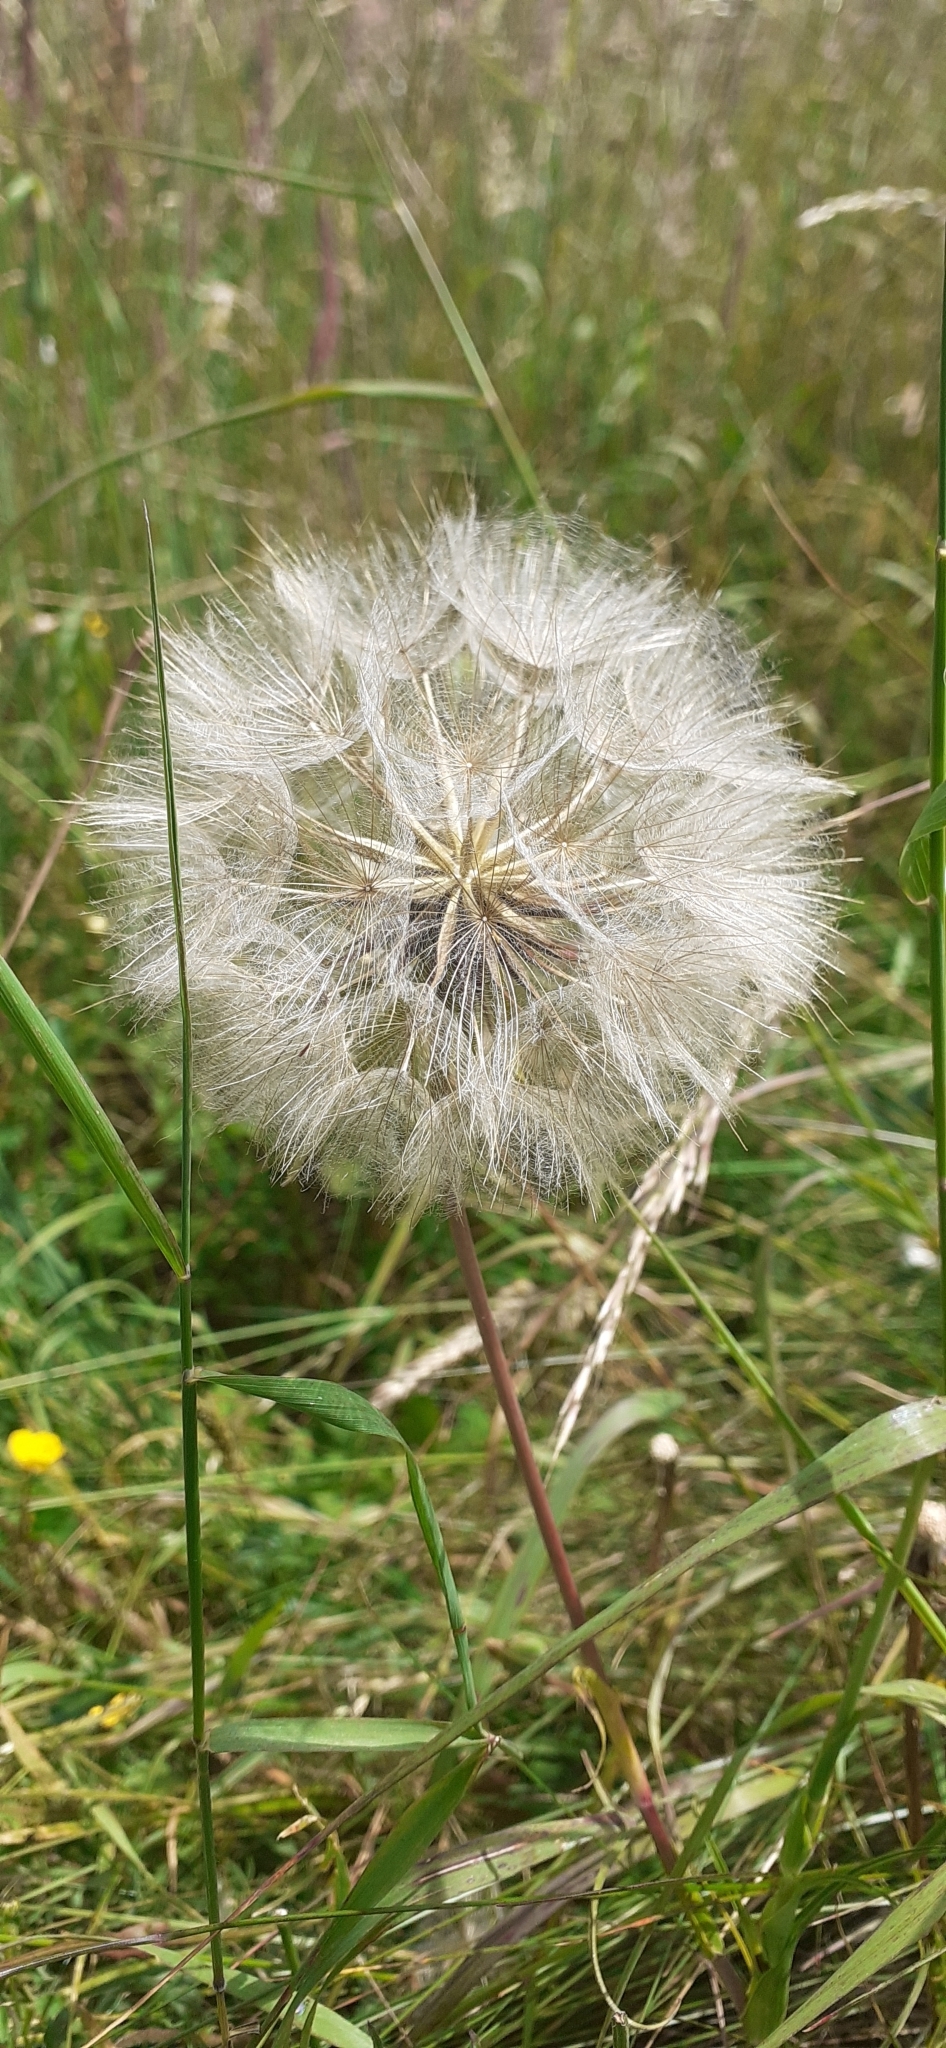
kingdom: Plantae
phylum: Tracheophyta
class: Magnoliopsida
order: Asterales
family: Asteraceae
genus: Tragopogon
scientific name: Tragopogon pratensis
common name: Goat's-beard
